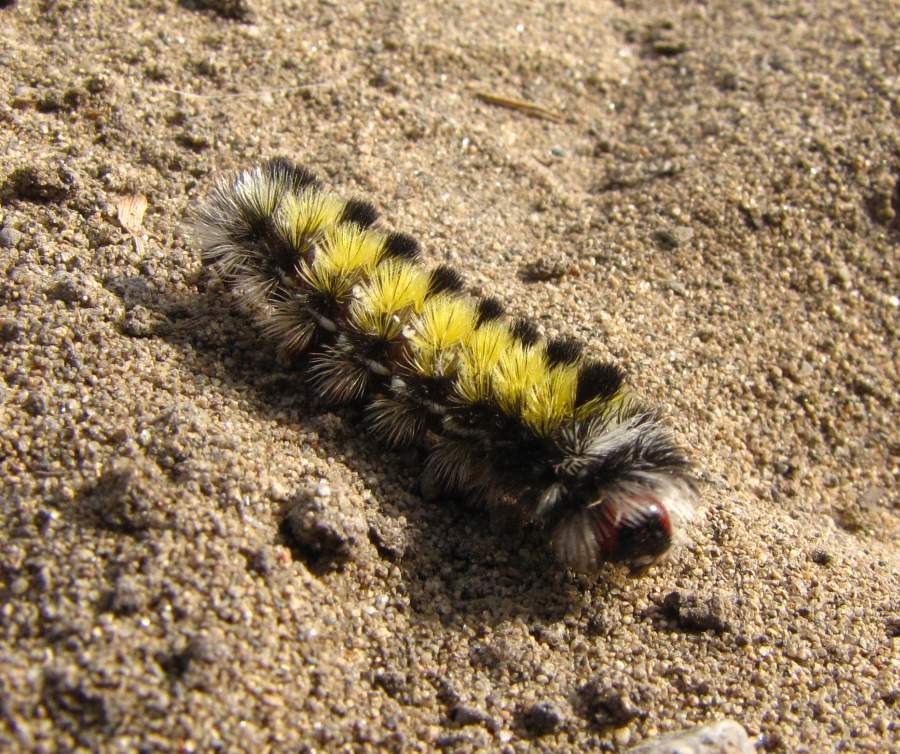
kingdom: Animalia
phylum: Arthropoda
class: Insecta
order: Lepidoptera
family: Erebidae
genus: Ctenucha
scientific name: Ctenucha virginica
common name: Virginia ctenucha moth
